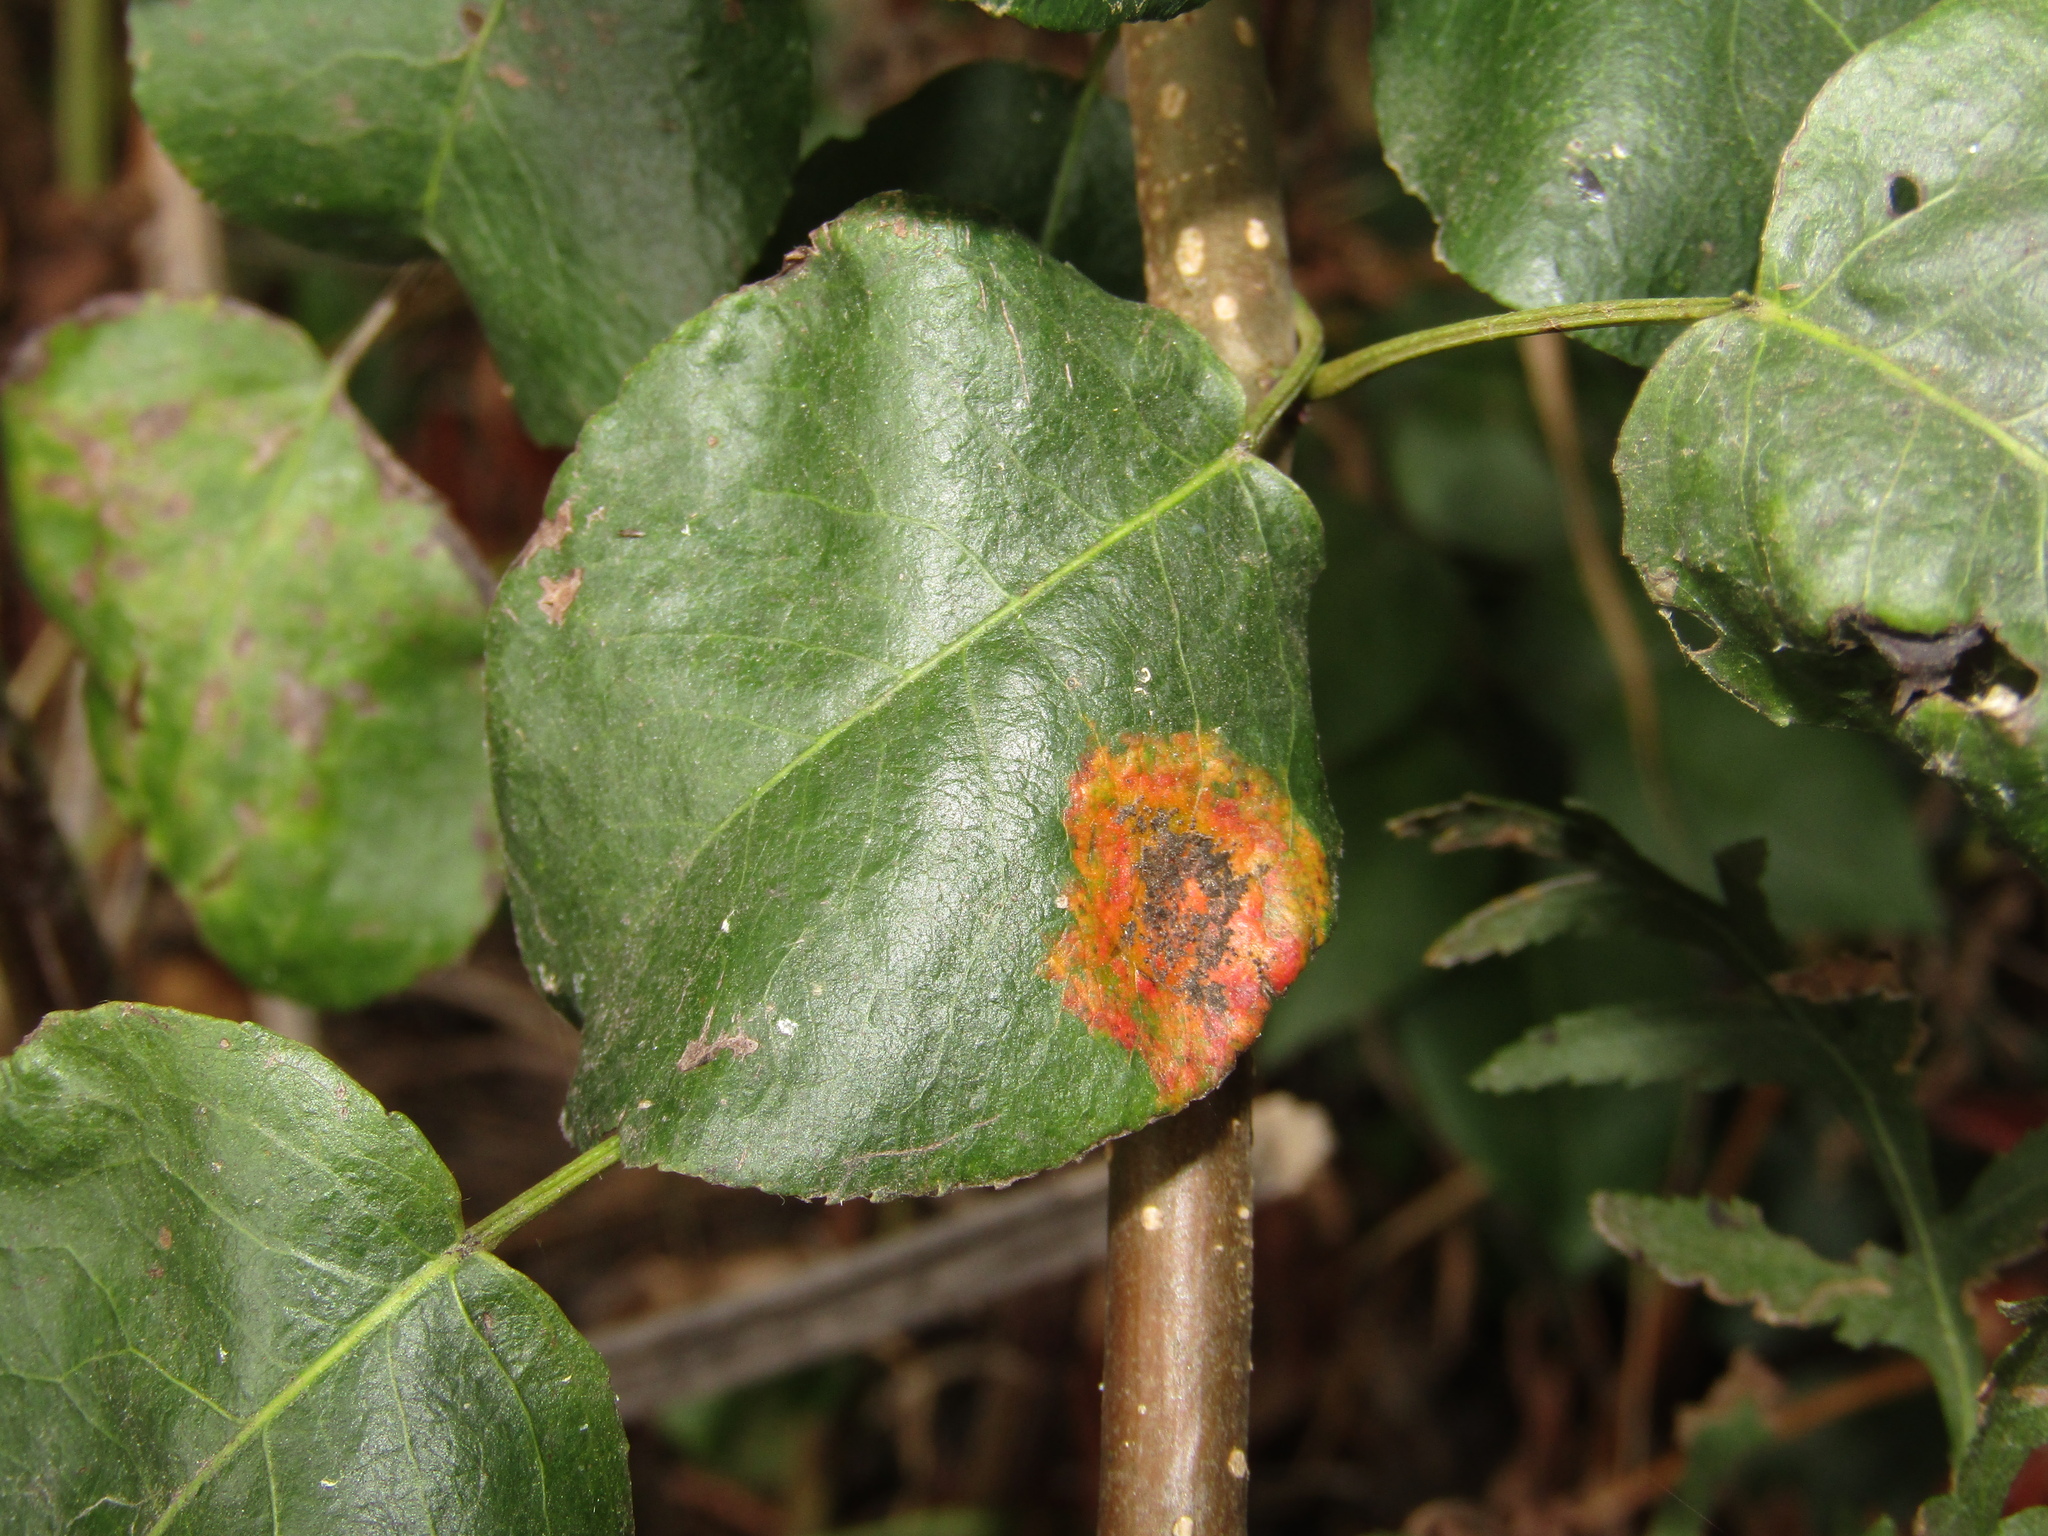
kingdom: Fungi
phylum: Basidiomycota
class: Pucciniomycetes
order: Pucciniales
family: Gymnosporangiaceae
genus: Gymnosporangium
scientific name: Gymnosporangium sabinae
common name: Pear trellis rust fungus
